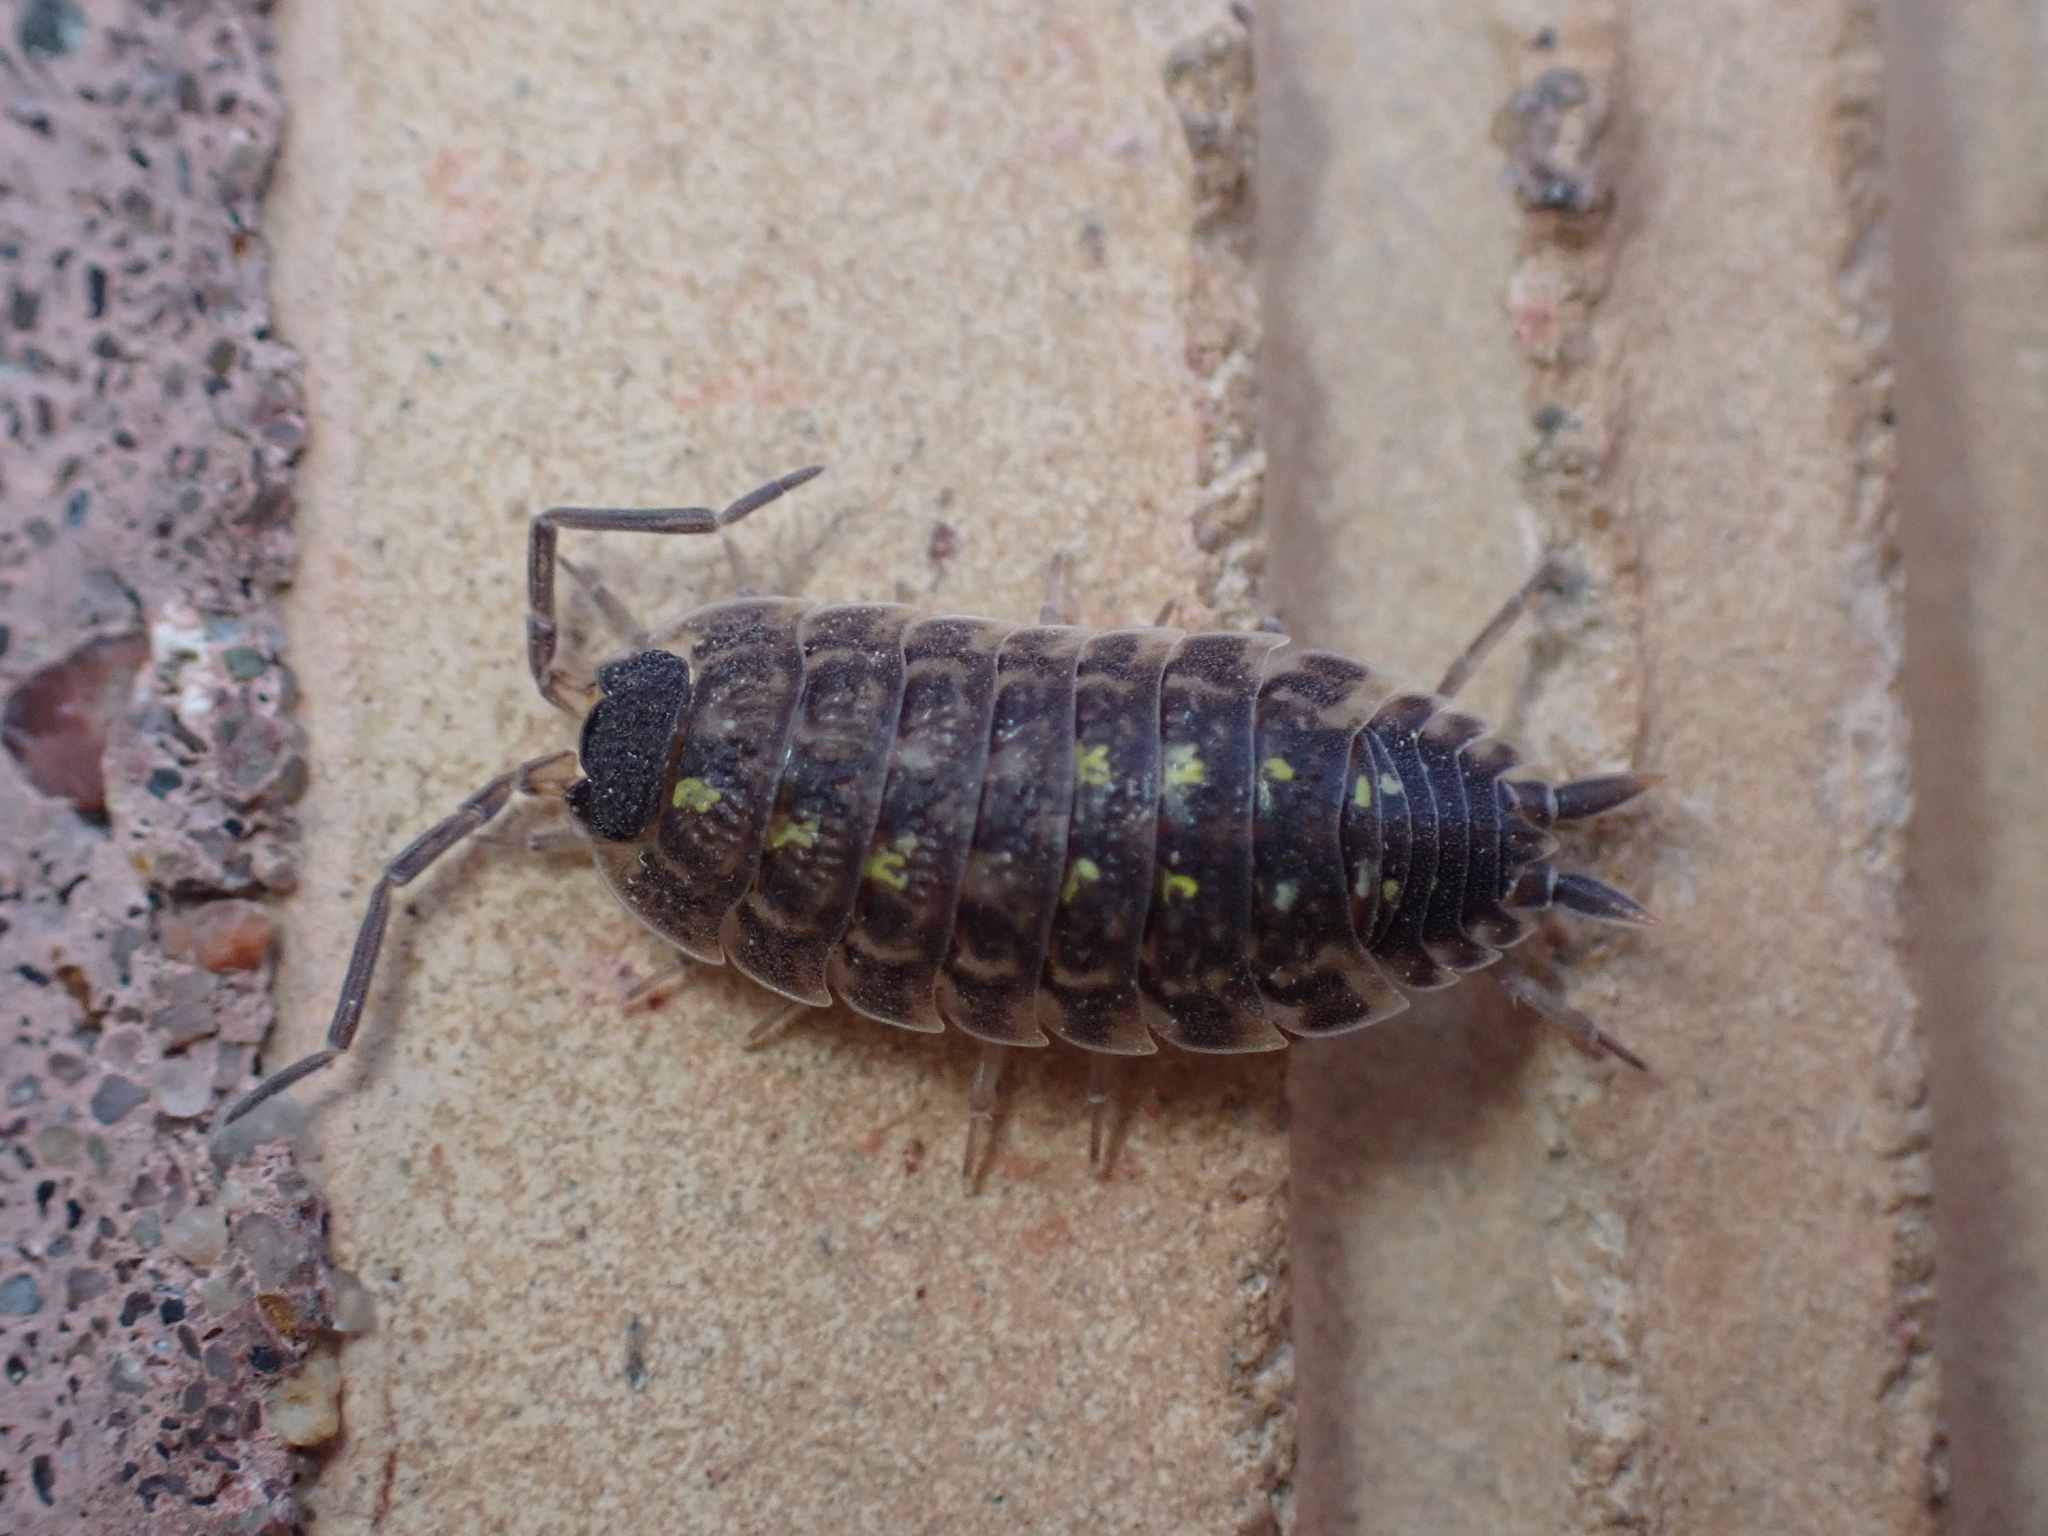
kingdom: Animalia
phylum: Arthropoda
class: Malacostraca
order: Isopoda
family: Porcellionidae
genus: Porcellio
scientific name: Porcellio spinicornis
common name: Painted woodlouse
